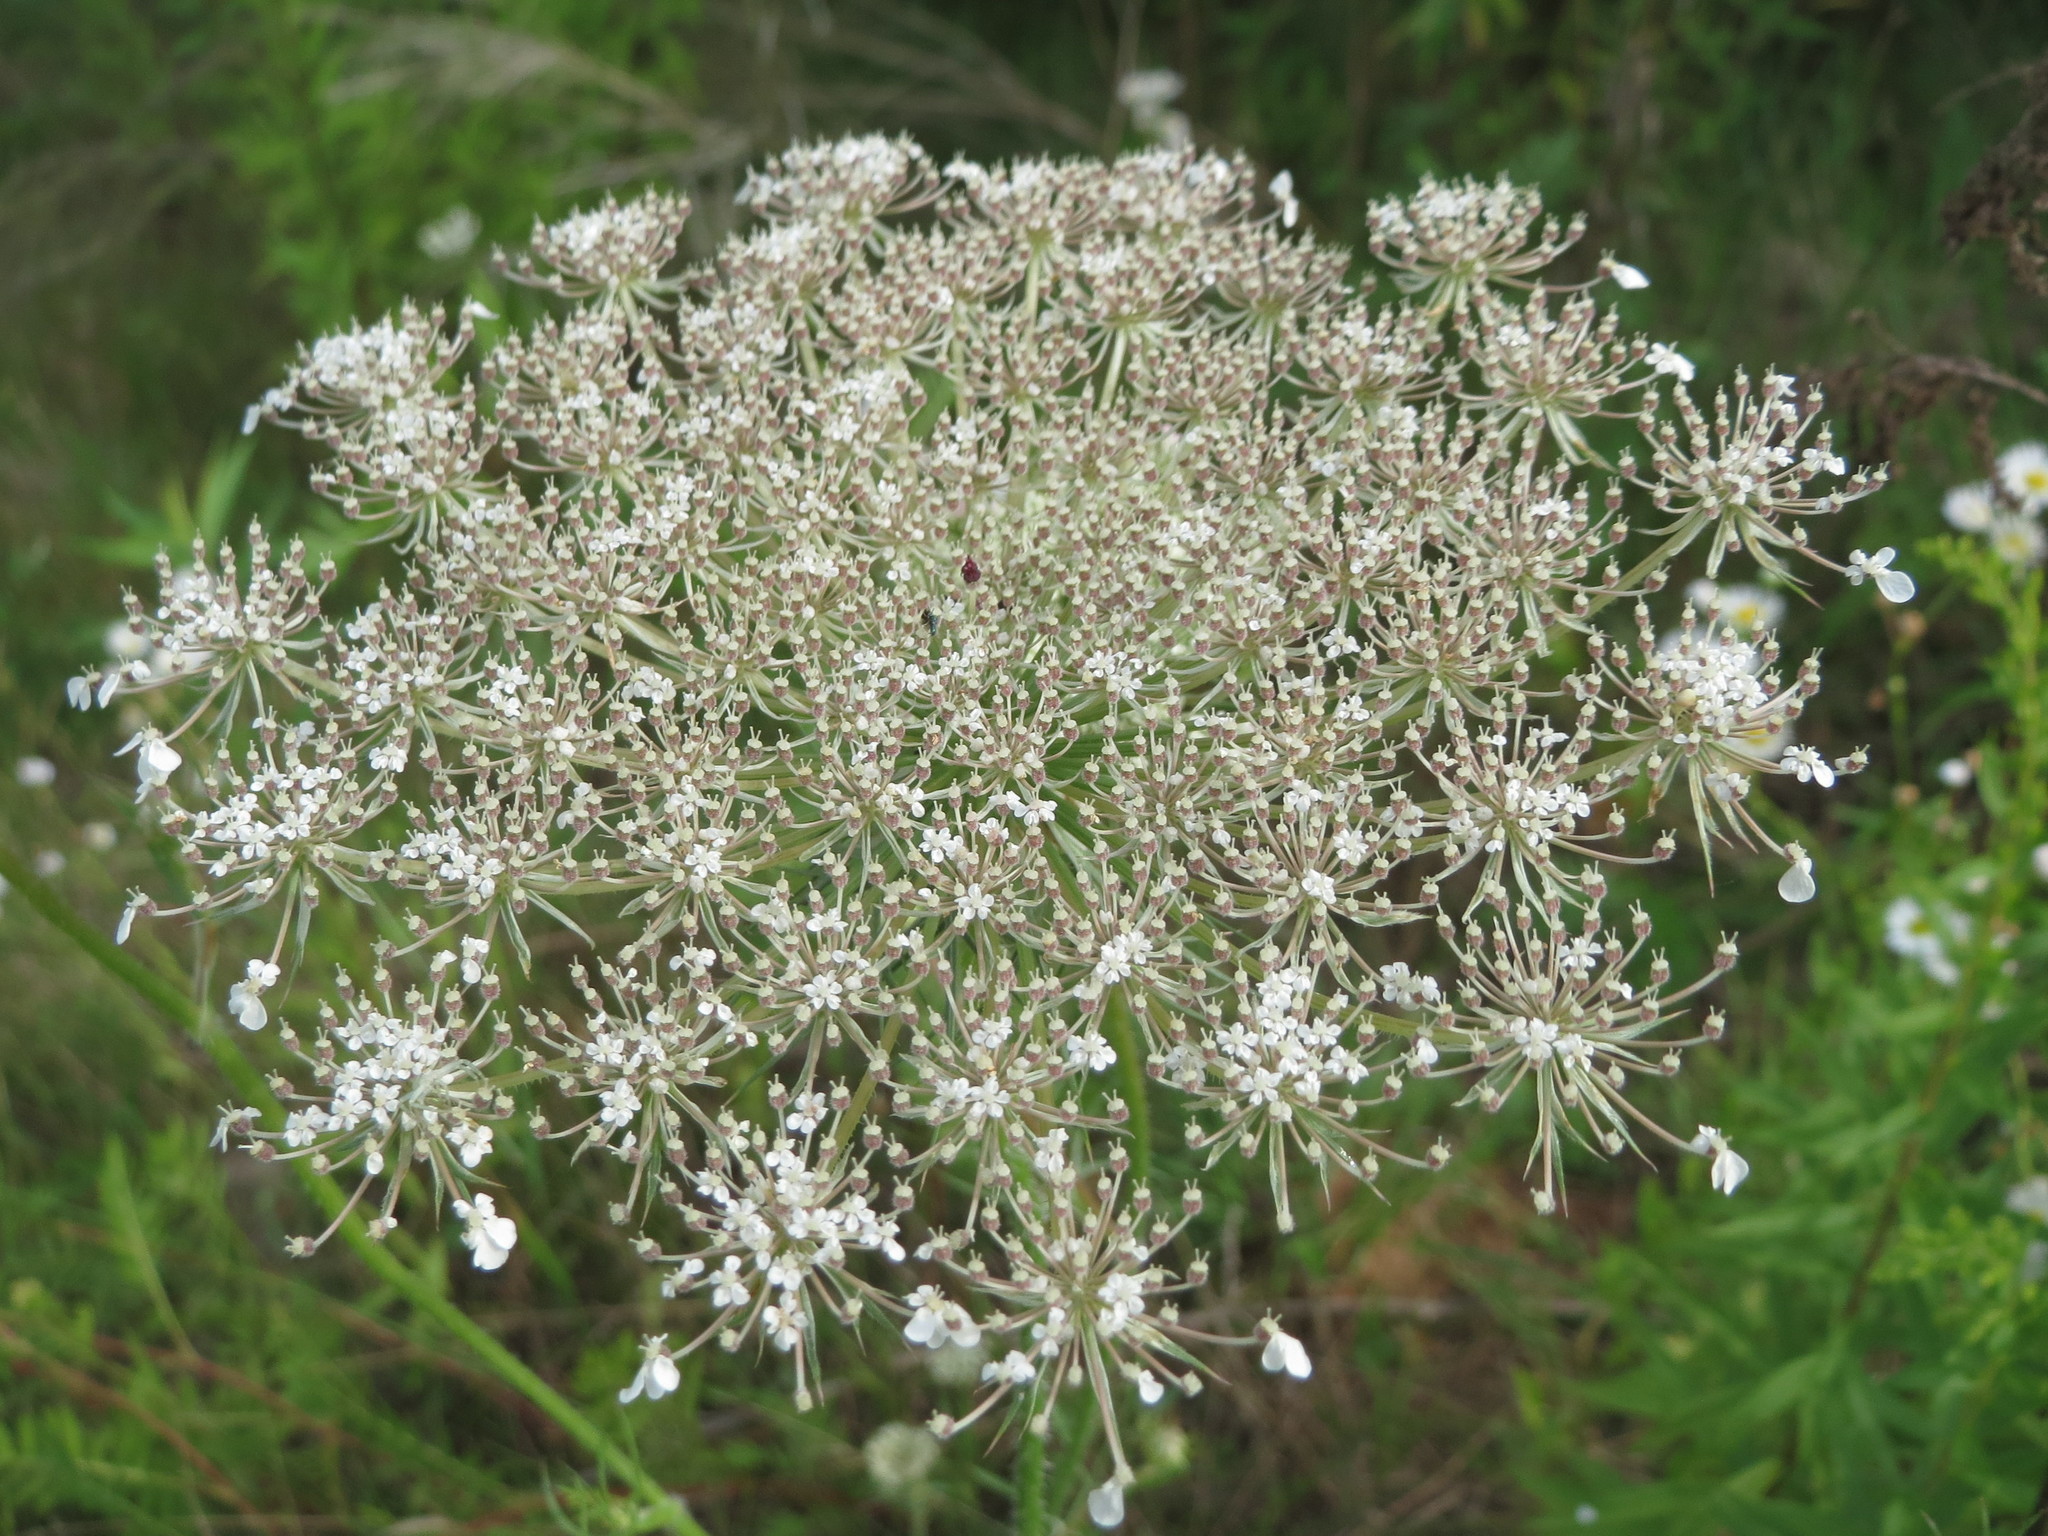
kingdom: Plantae
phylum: Tracheophyta
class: Magnoliopsida
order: Apiales
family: Apiaceae
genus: Daucus
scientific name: Daucus carota
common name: Wild carrot
